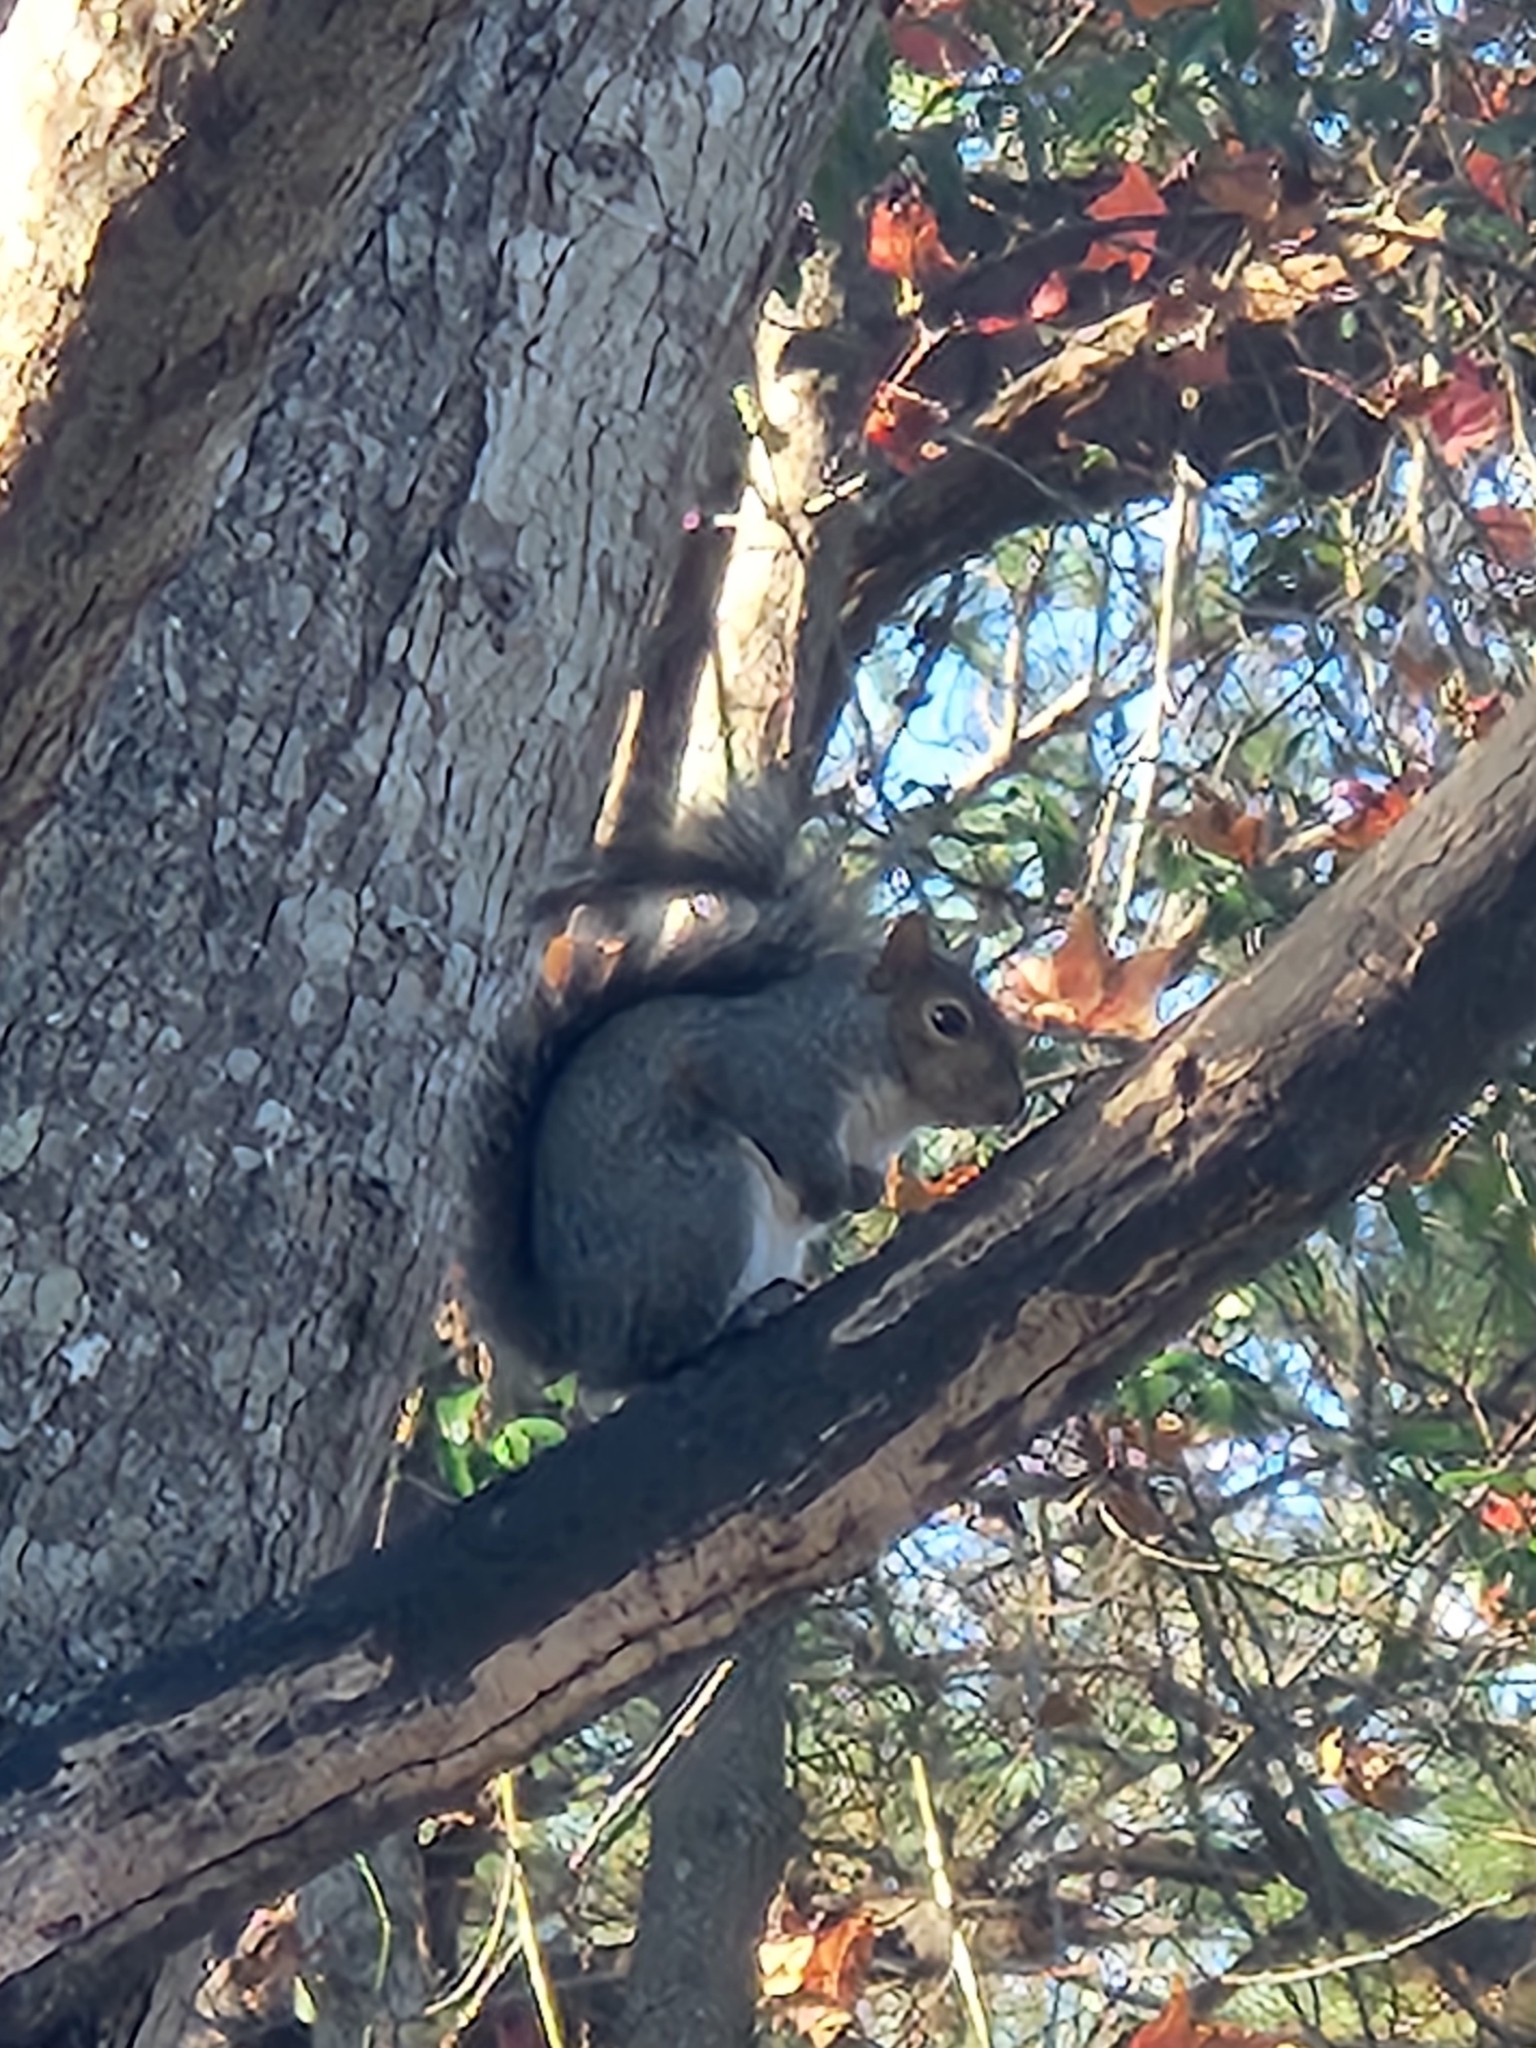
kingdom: Animalia
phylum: Chordata
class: Mammalia
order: Rodentia
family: Sciuridae
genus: Sciurus
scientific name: Sciurus carolinensis
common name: Eastern gray squirrel
